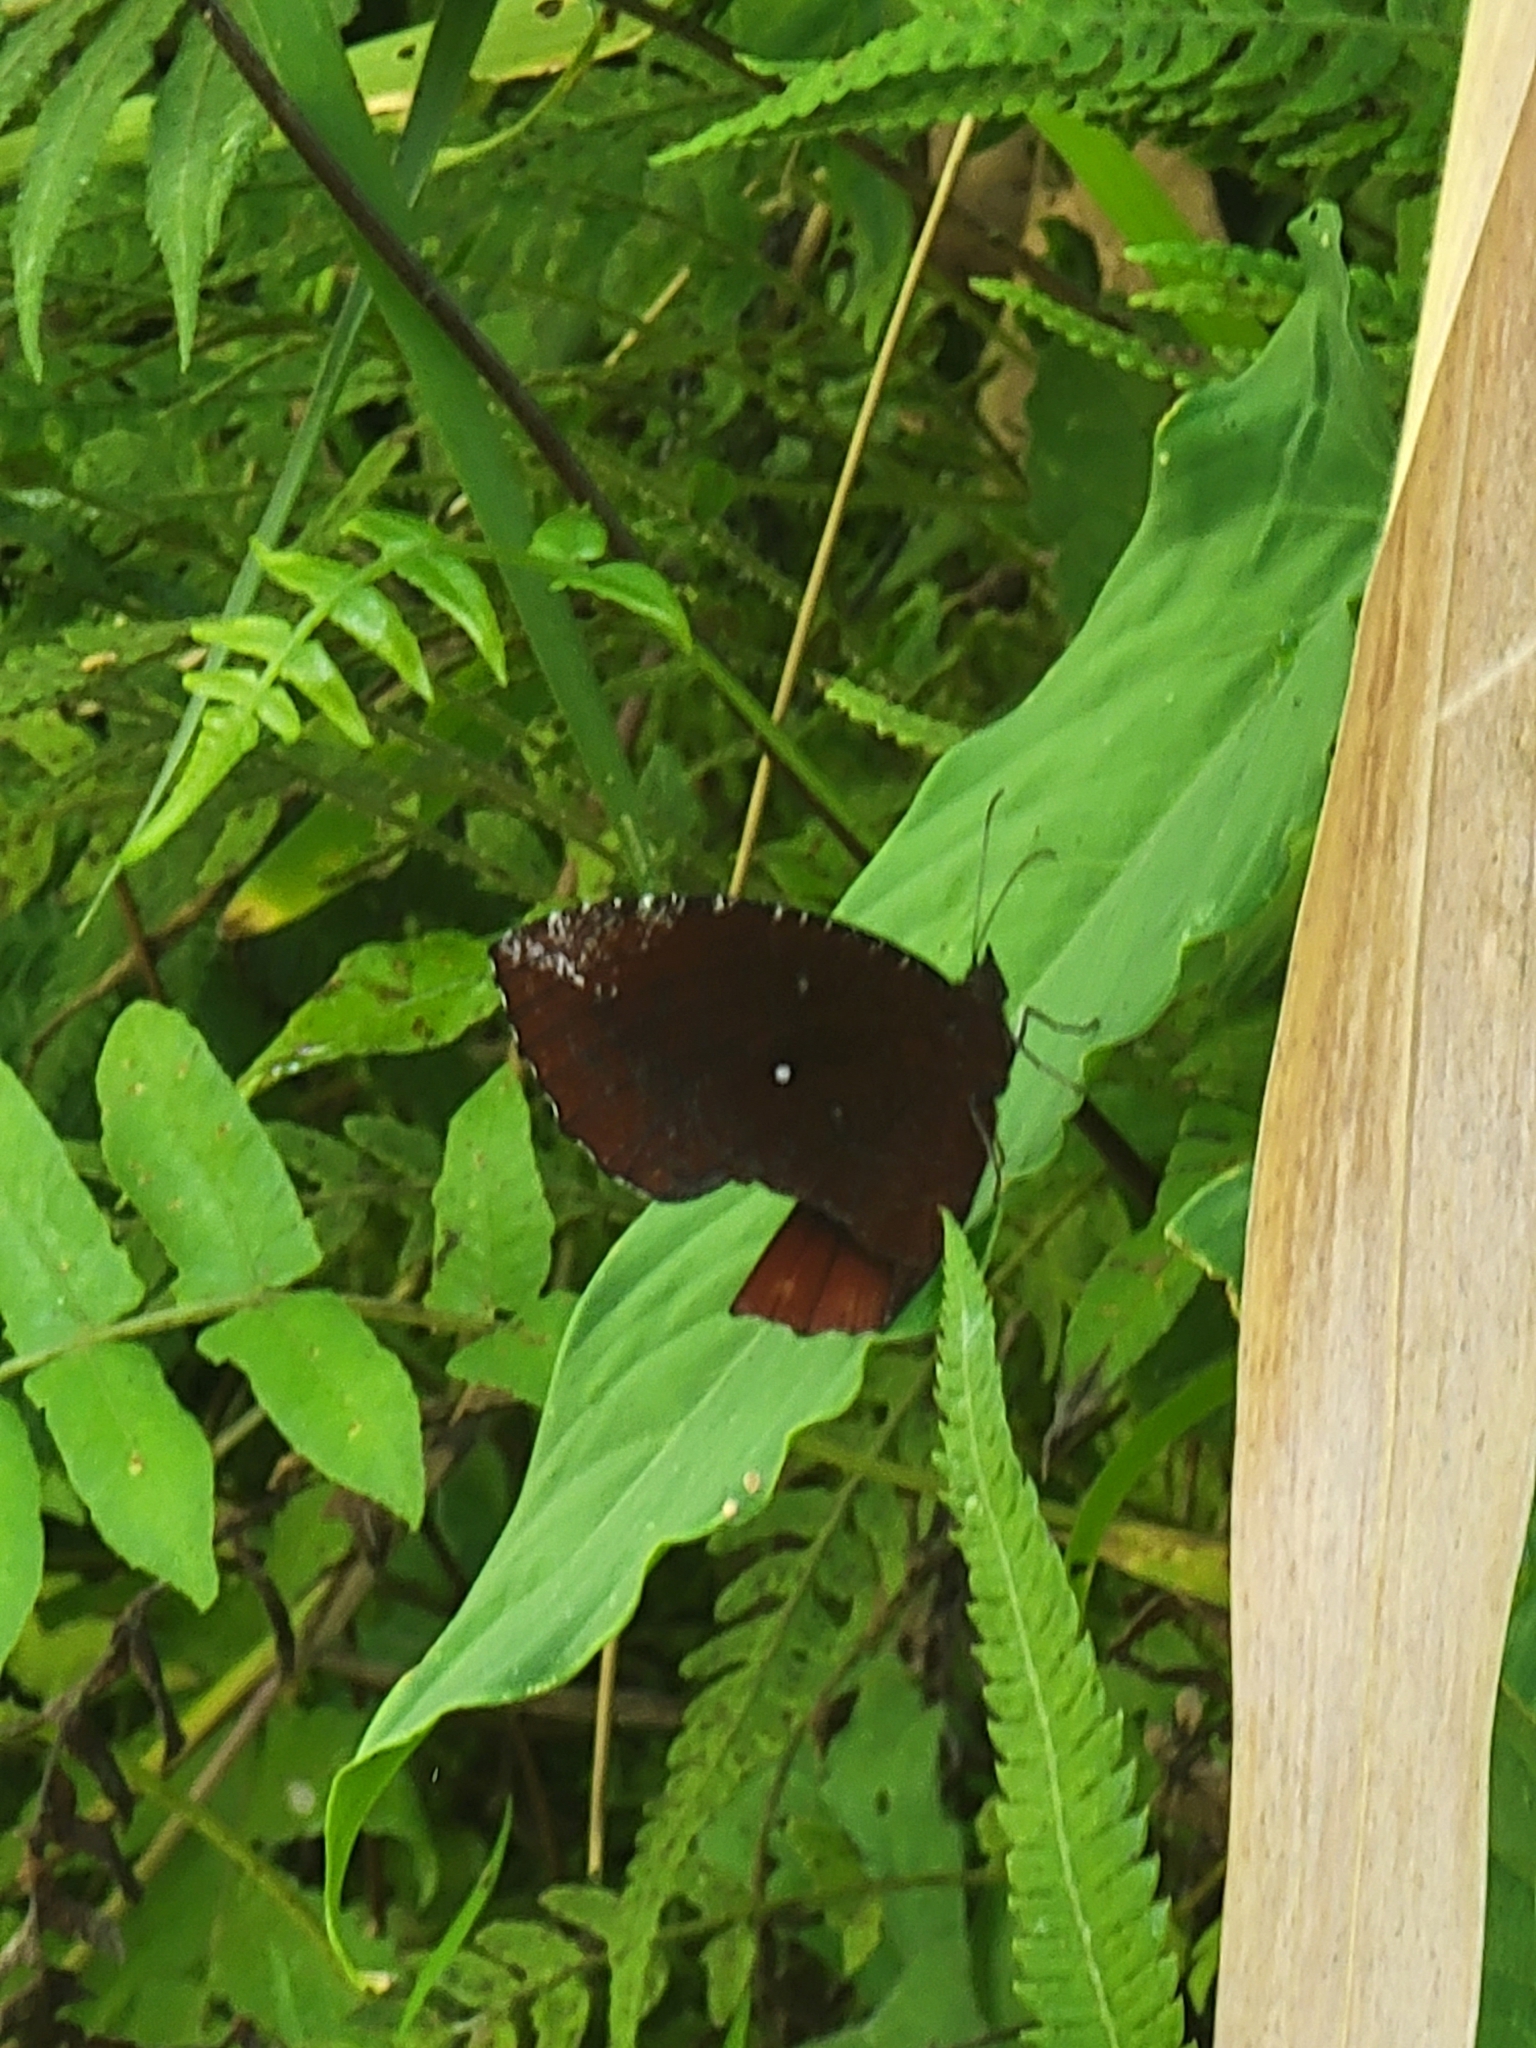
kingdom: Animalia
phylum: Arthropoda
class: Insecta
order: Lepidoptera
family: Nymphalidae
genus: Elymnias
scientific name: Elymnias hypermnestra
